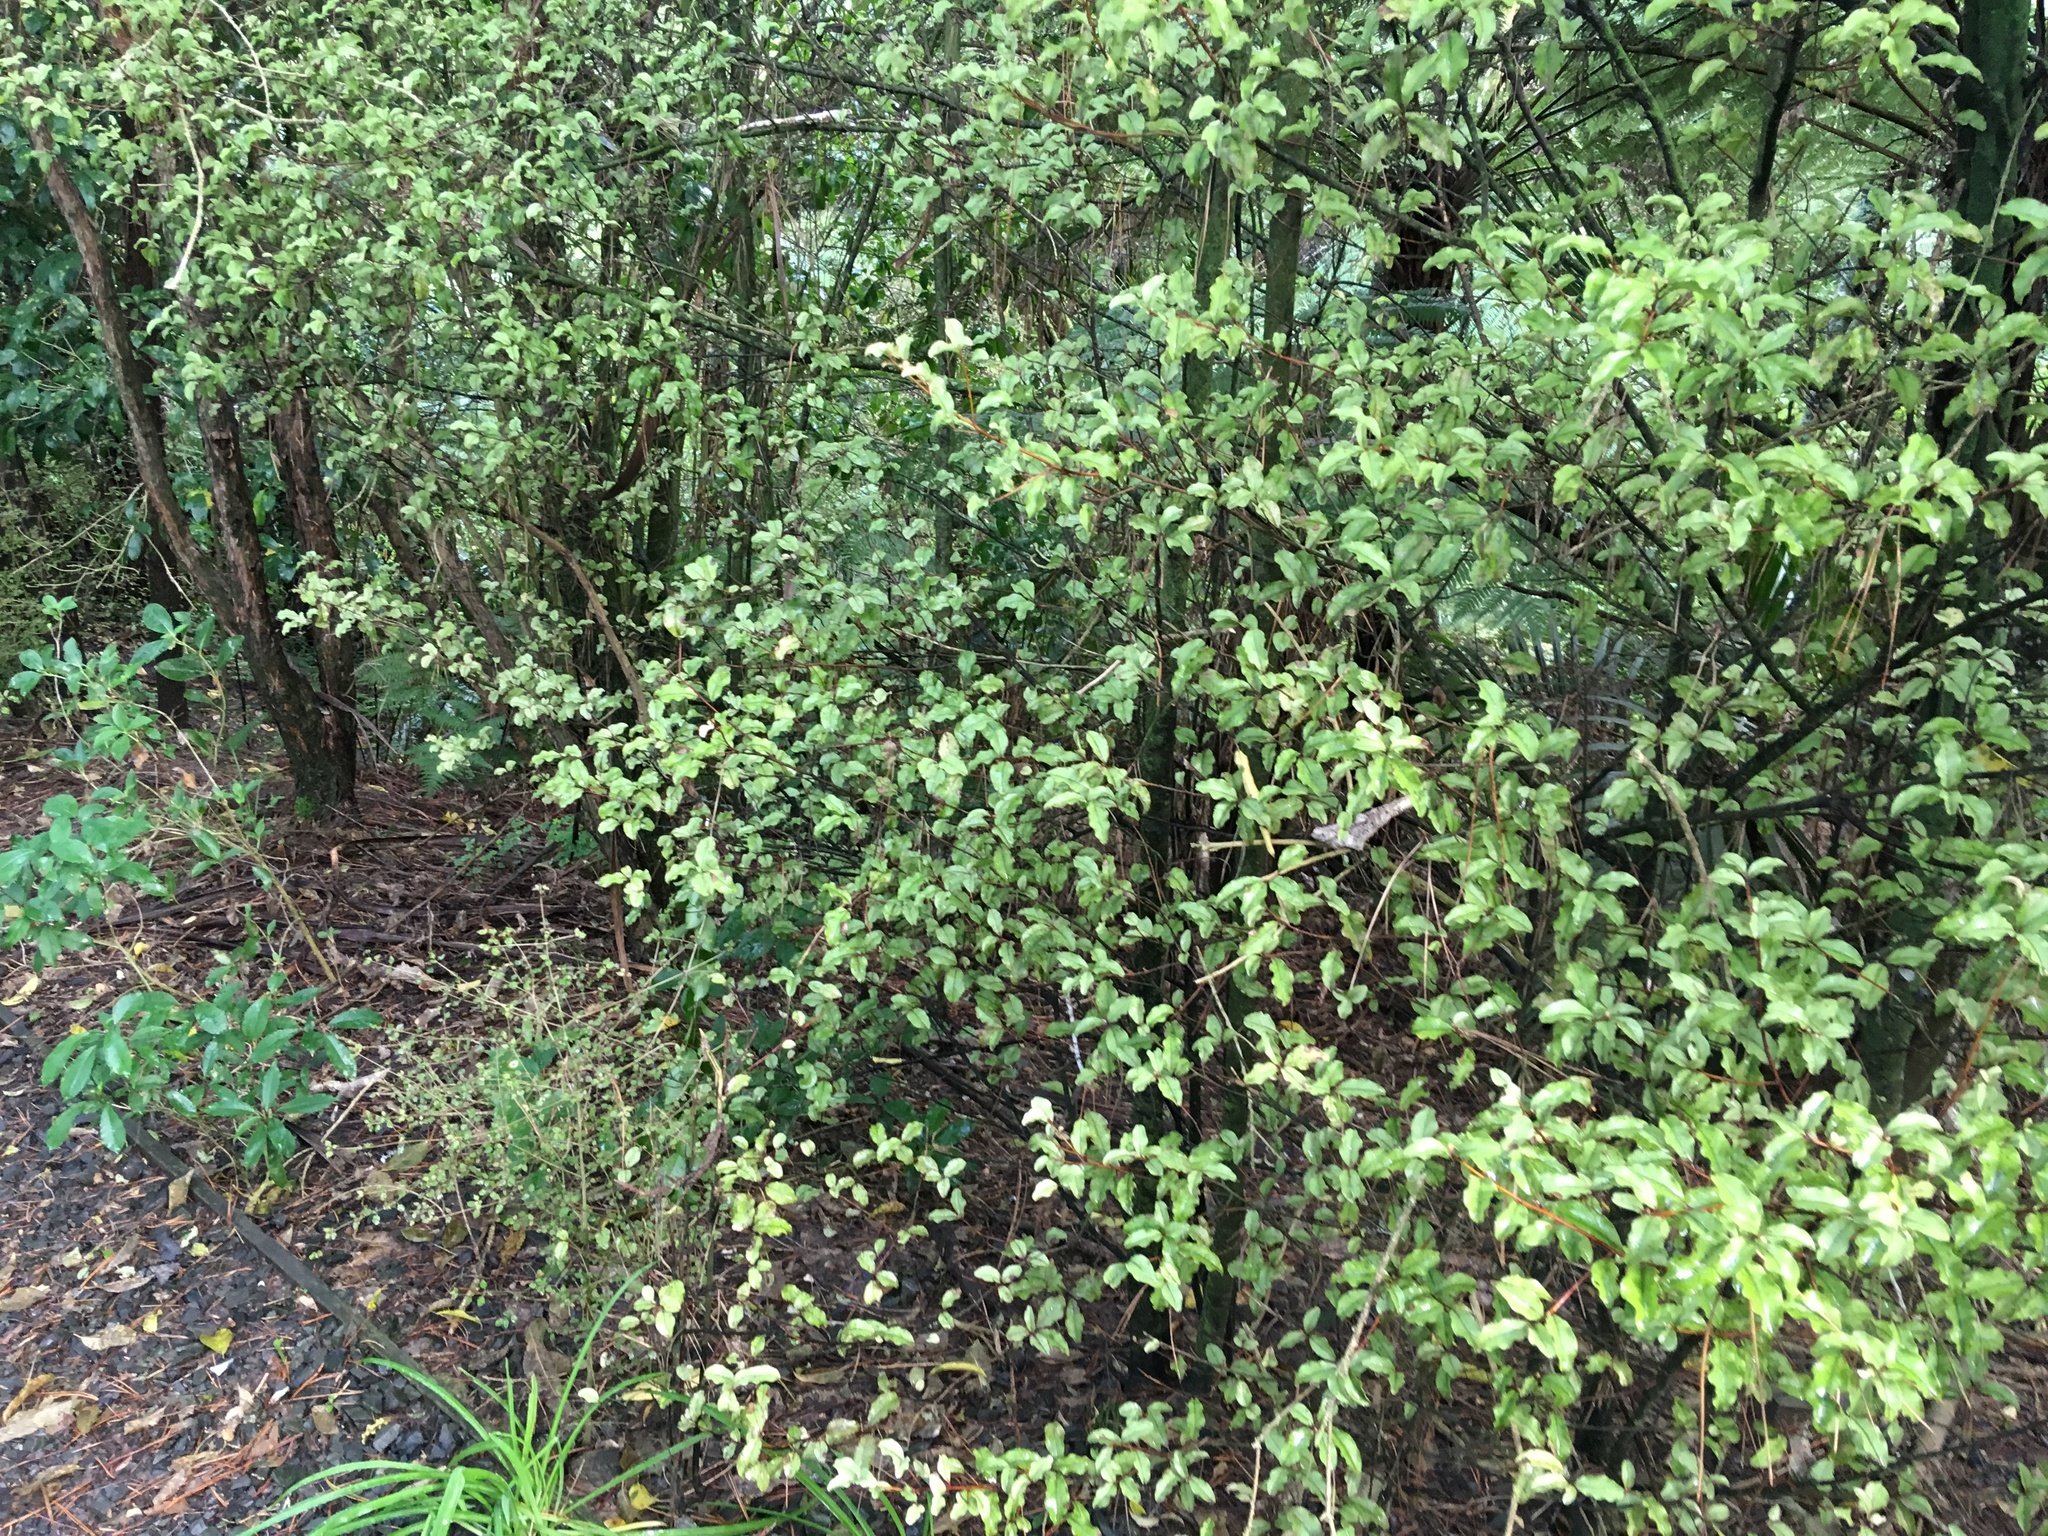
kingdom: Plantae
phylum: Tracheophyta
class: Magnoliopsida
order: Ericales
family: Primulaceae
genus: Myrsine
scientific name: Myrsine australis
